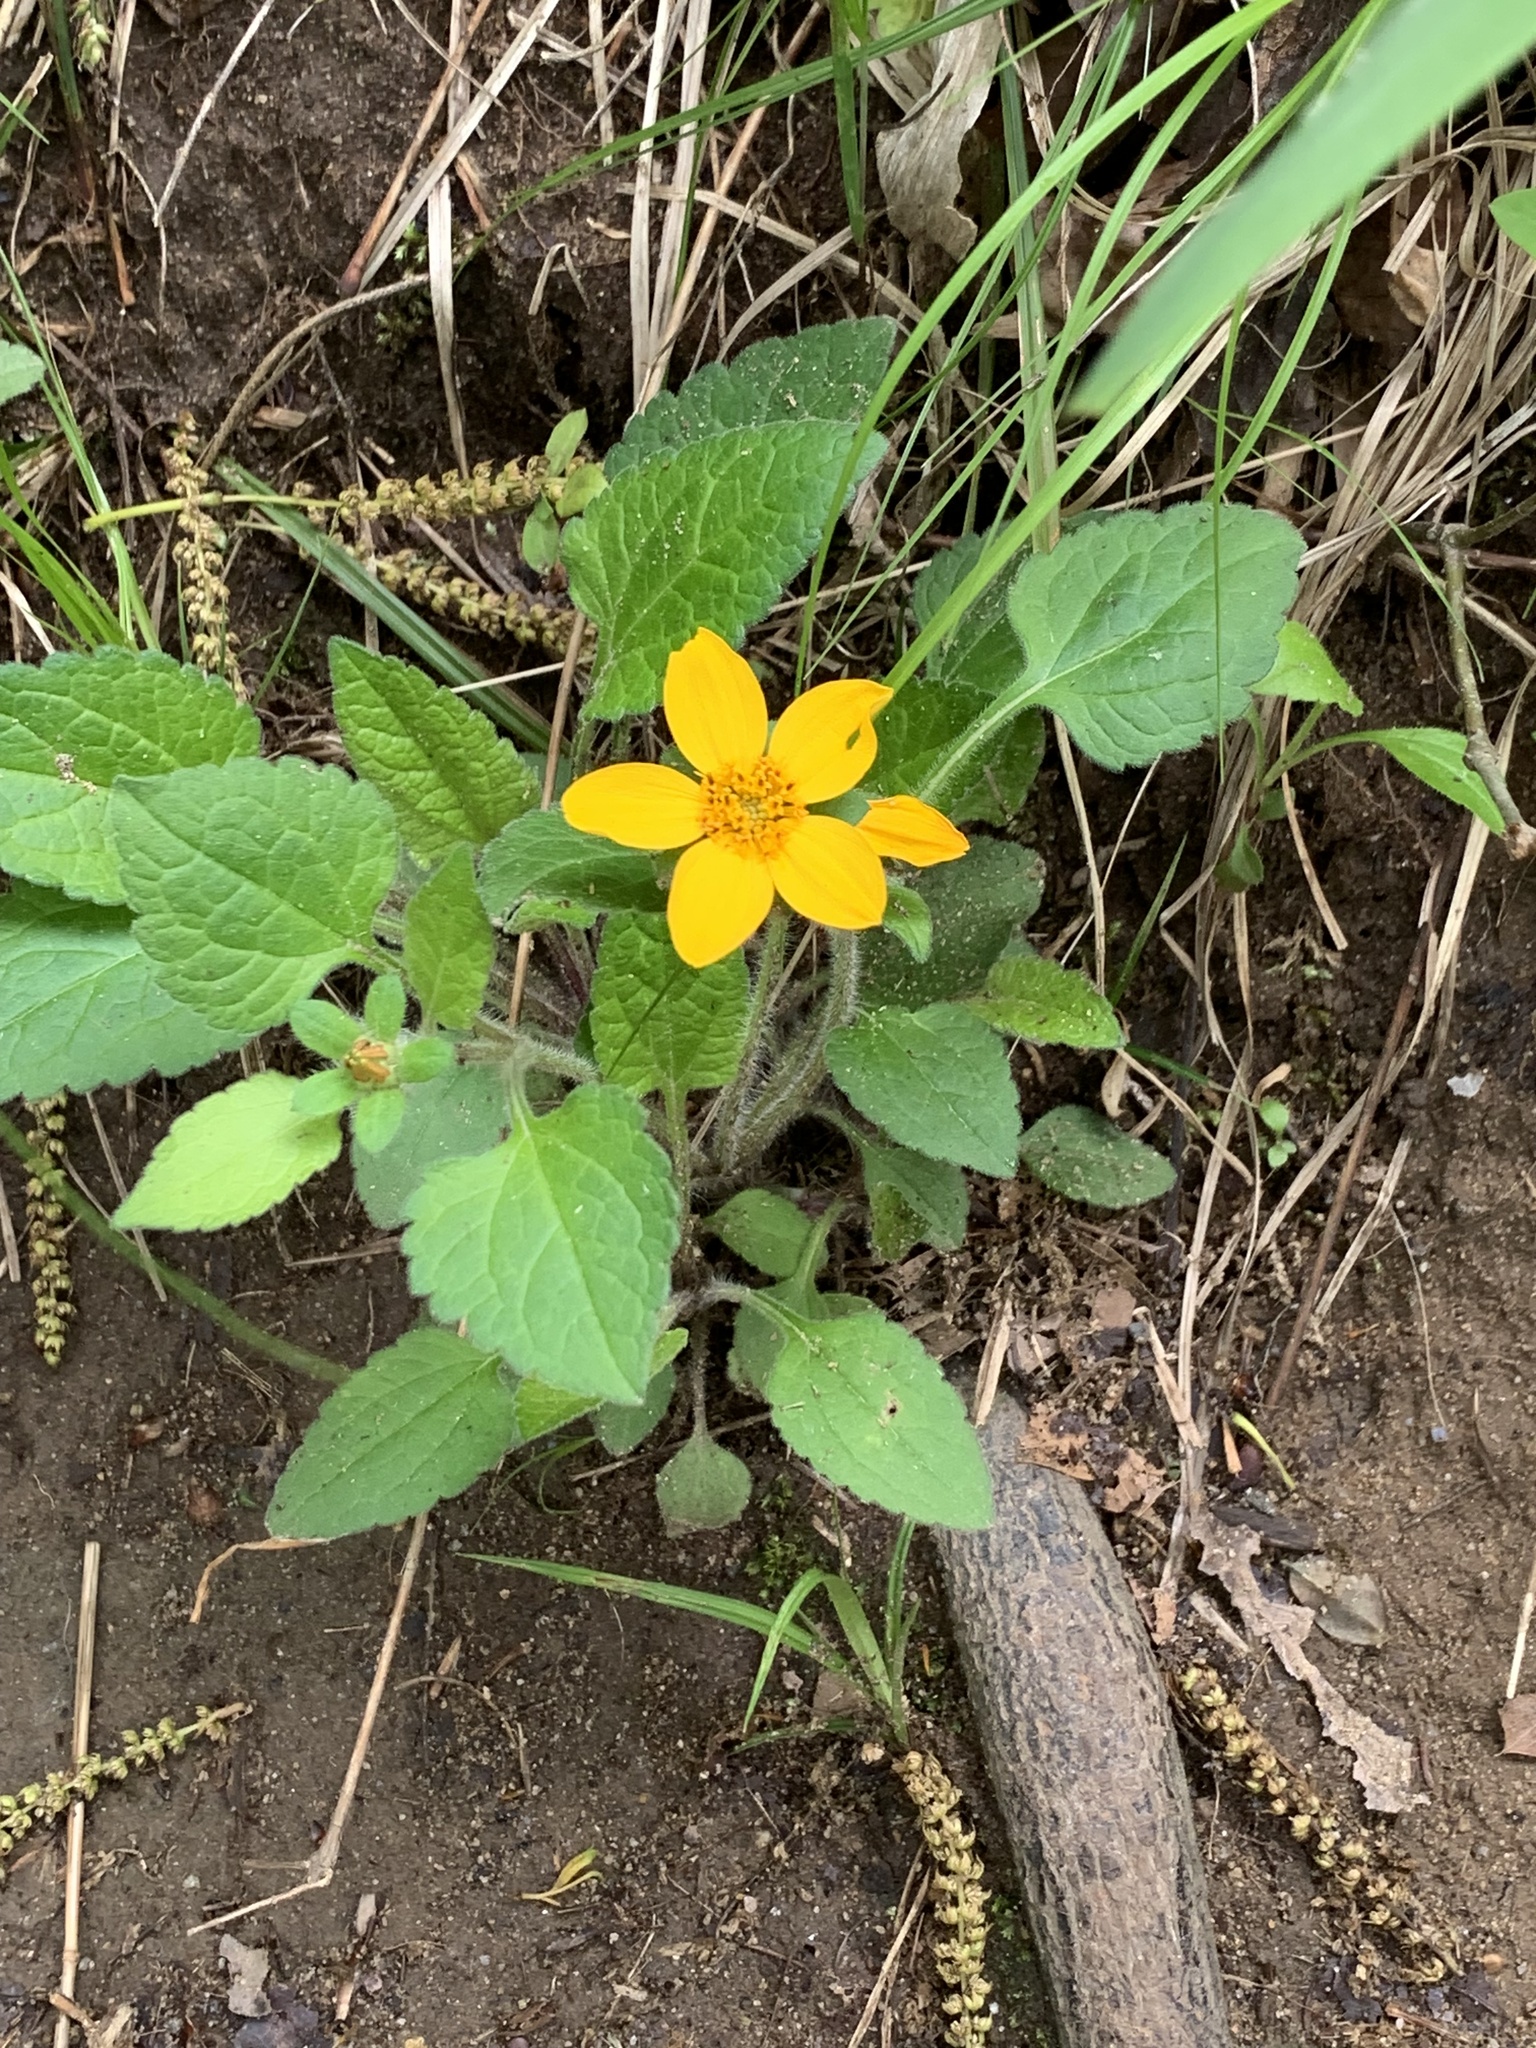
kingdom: Plantae
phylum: Tracheophyta
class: Magnoliopsida
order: Asterales
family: Asteraceae
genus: Chrysogonum
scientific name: Chrysogonum virginianum
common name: Golden-knee
